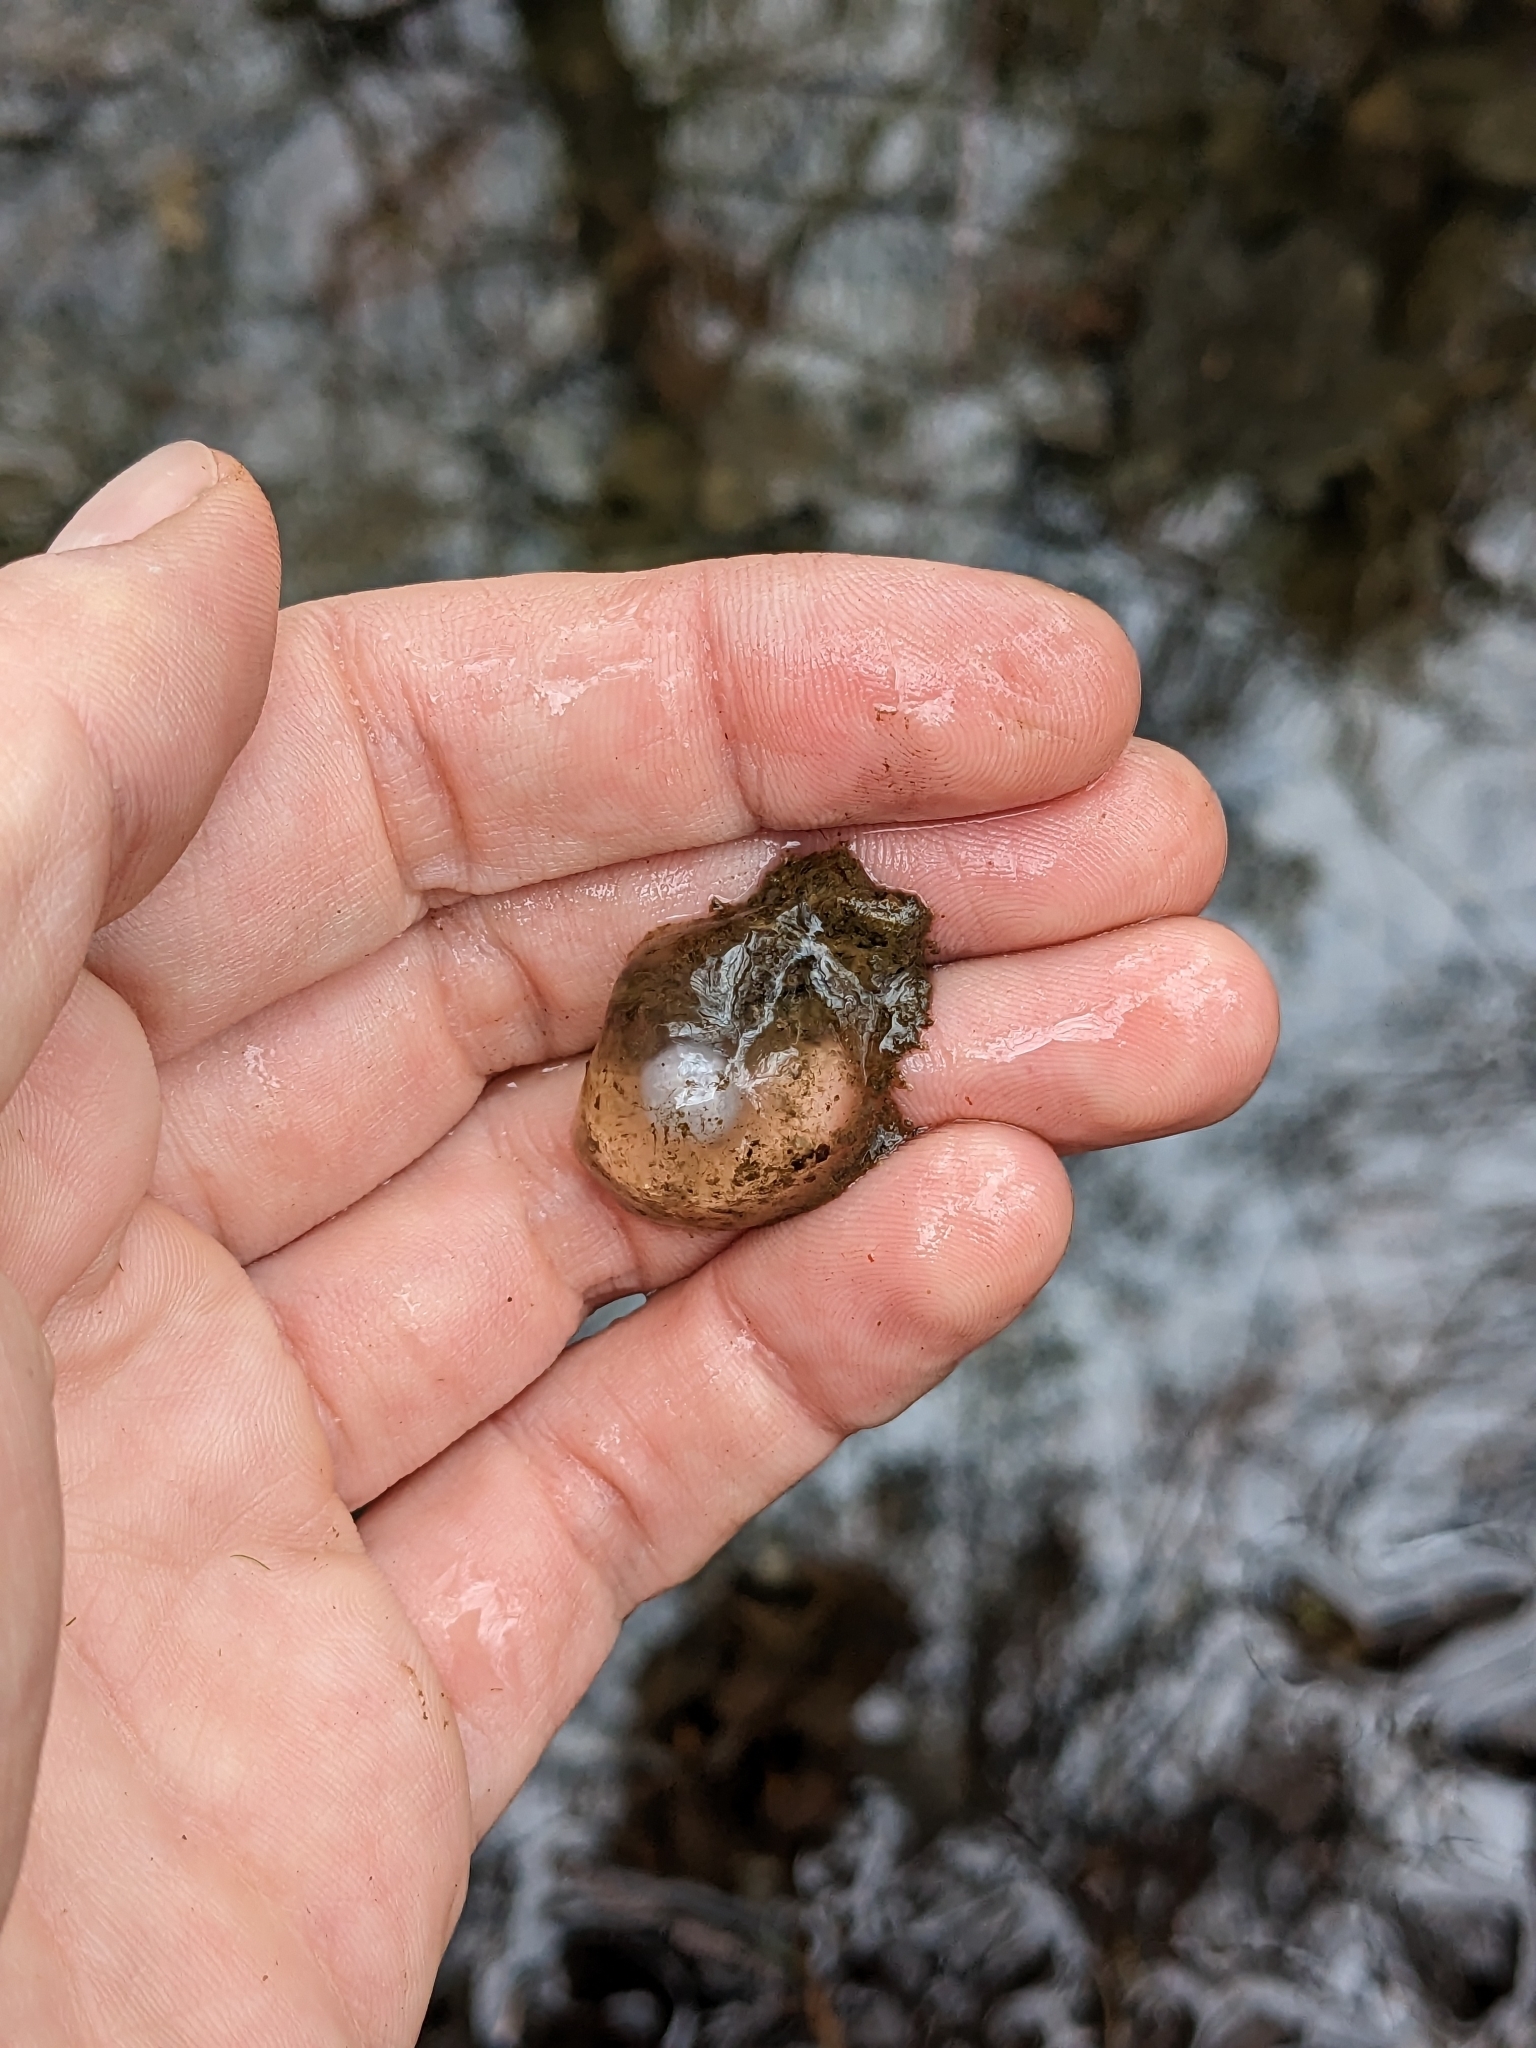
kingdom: Animalia
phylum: Chordata
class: Amphibia
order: Caudata
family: Ambystomatidae
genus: Ambystoma
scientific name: Ambystoma maculatum
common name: Spotted salamander
